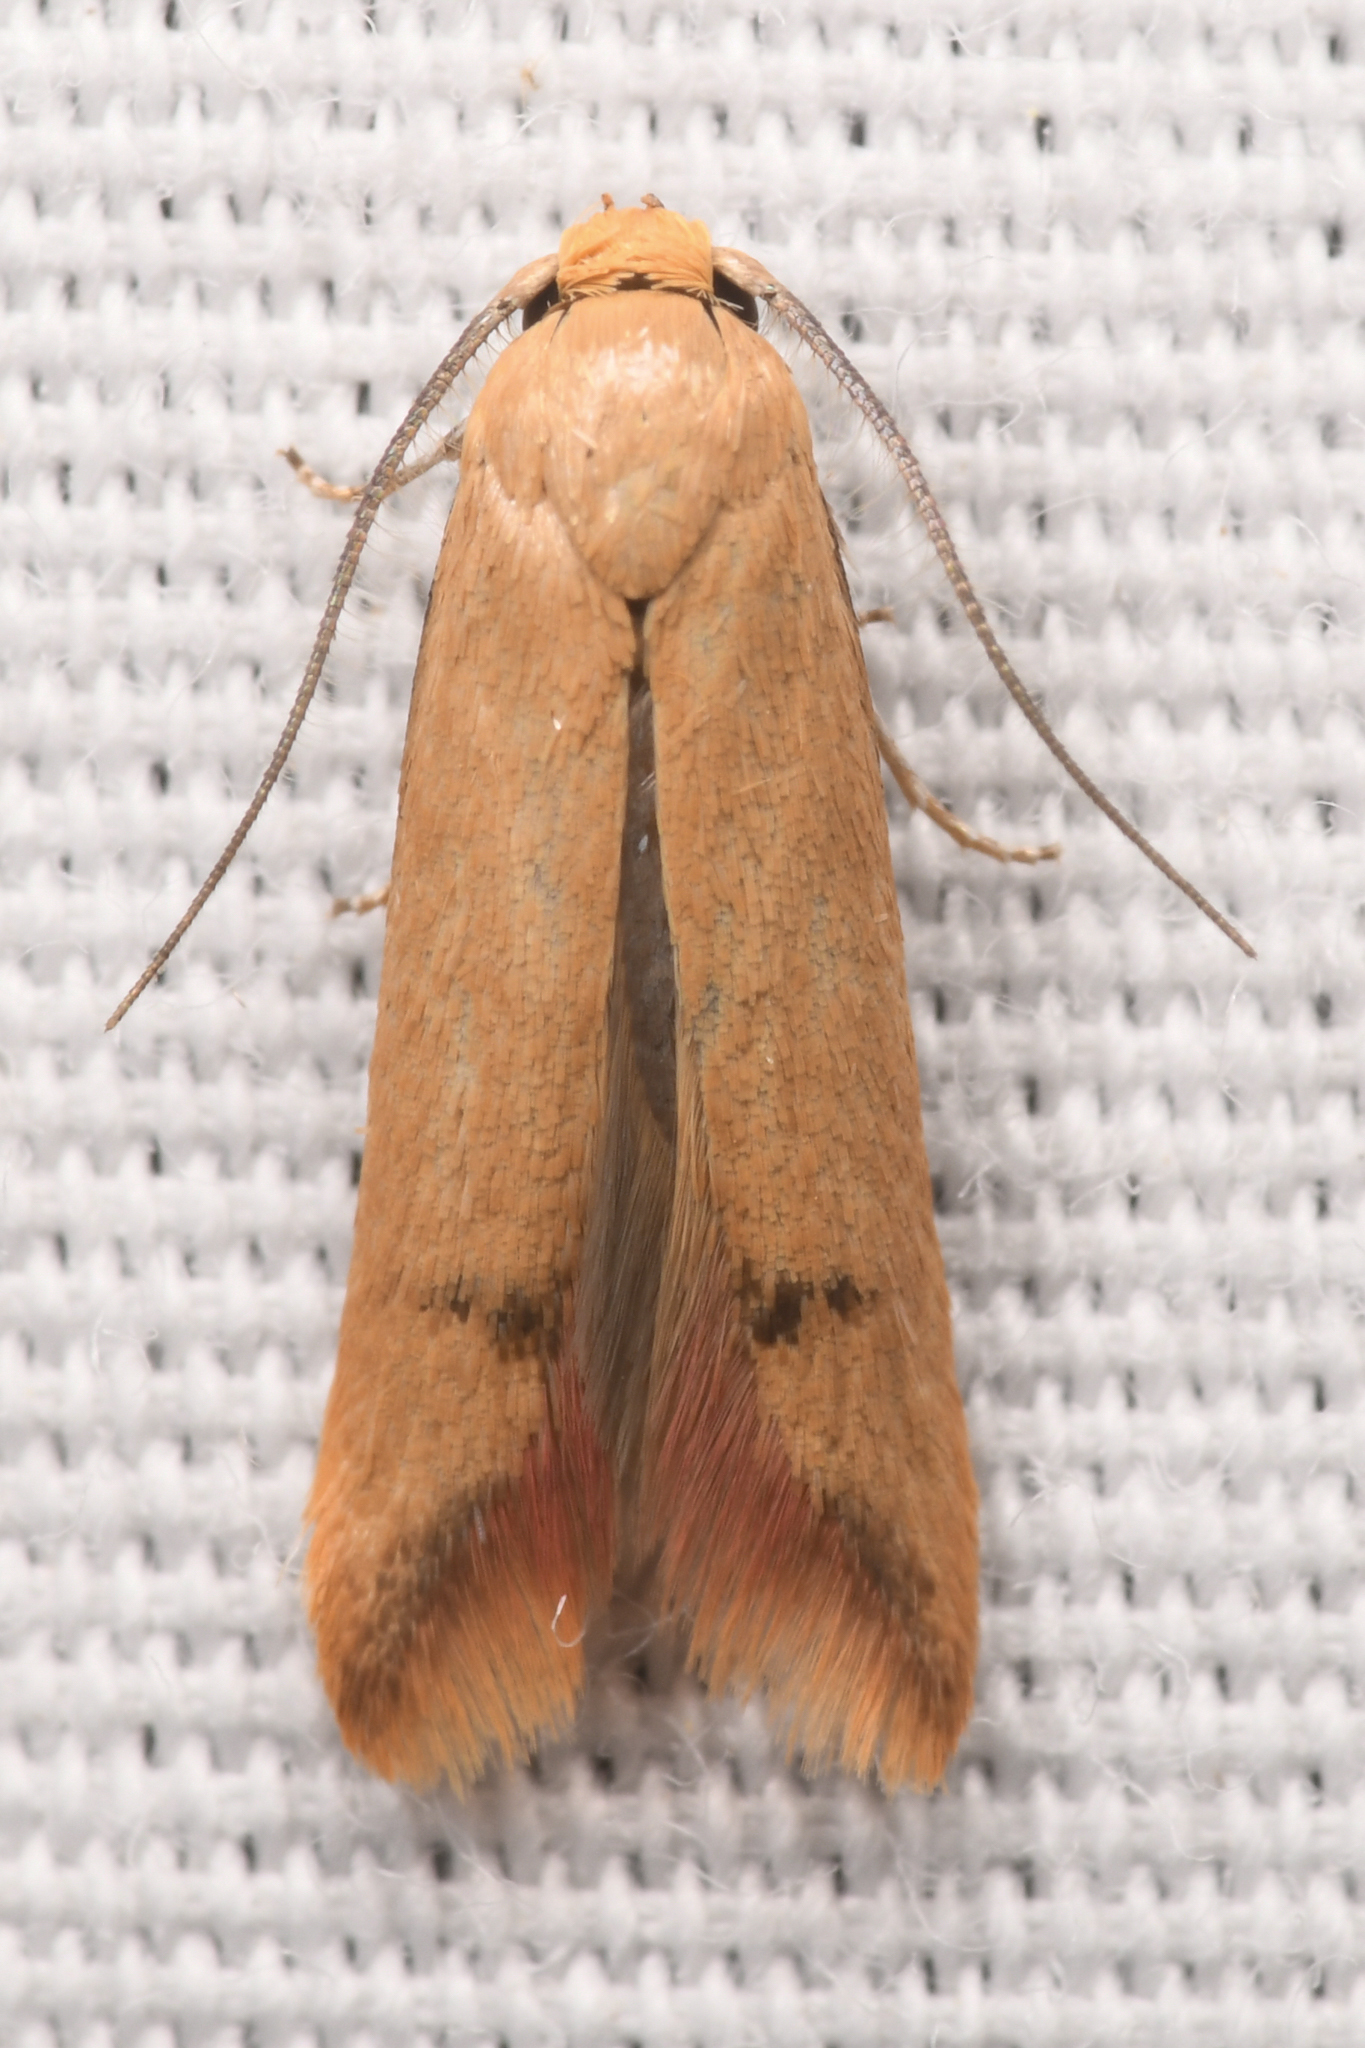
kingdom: Animalia
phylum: Arthropoda
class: Insecta
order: Lepidoptera
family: Oecophoridae
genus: Tachystola
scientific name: Tachystola hemisema
